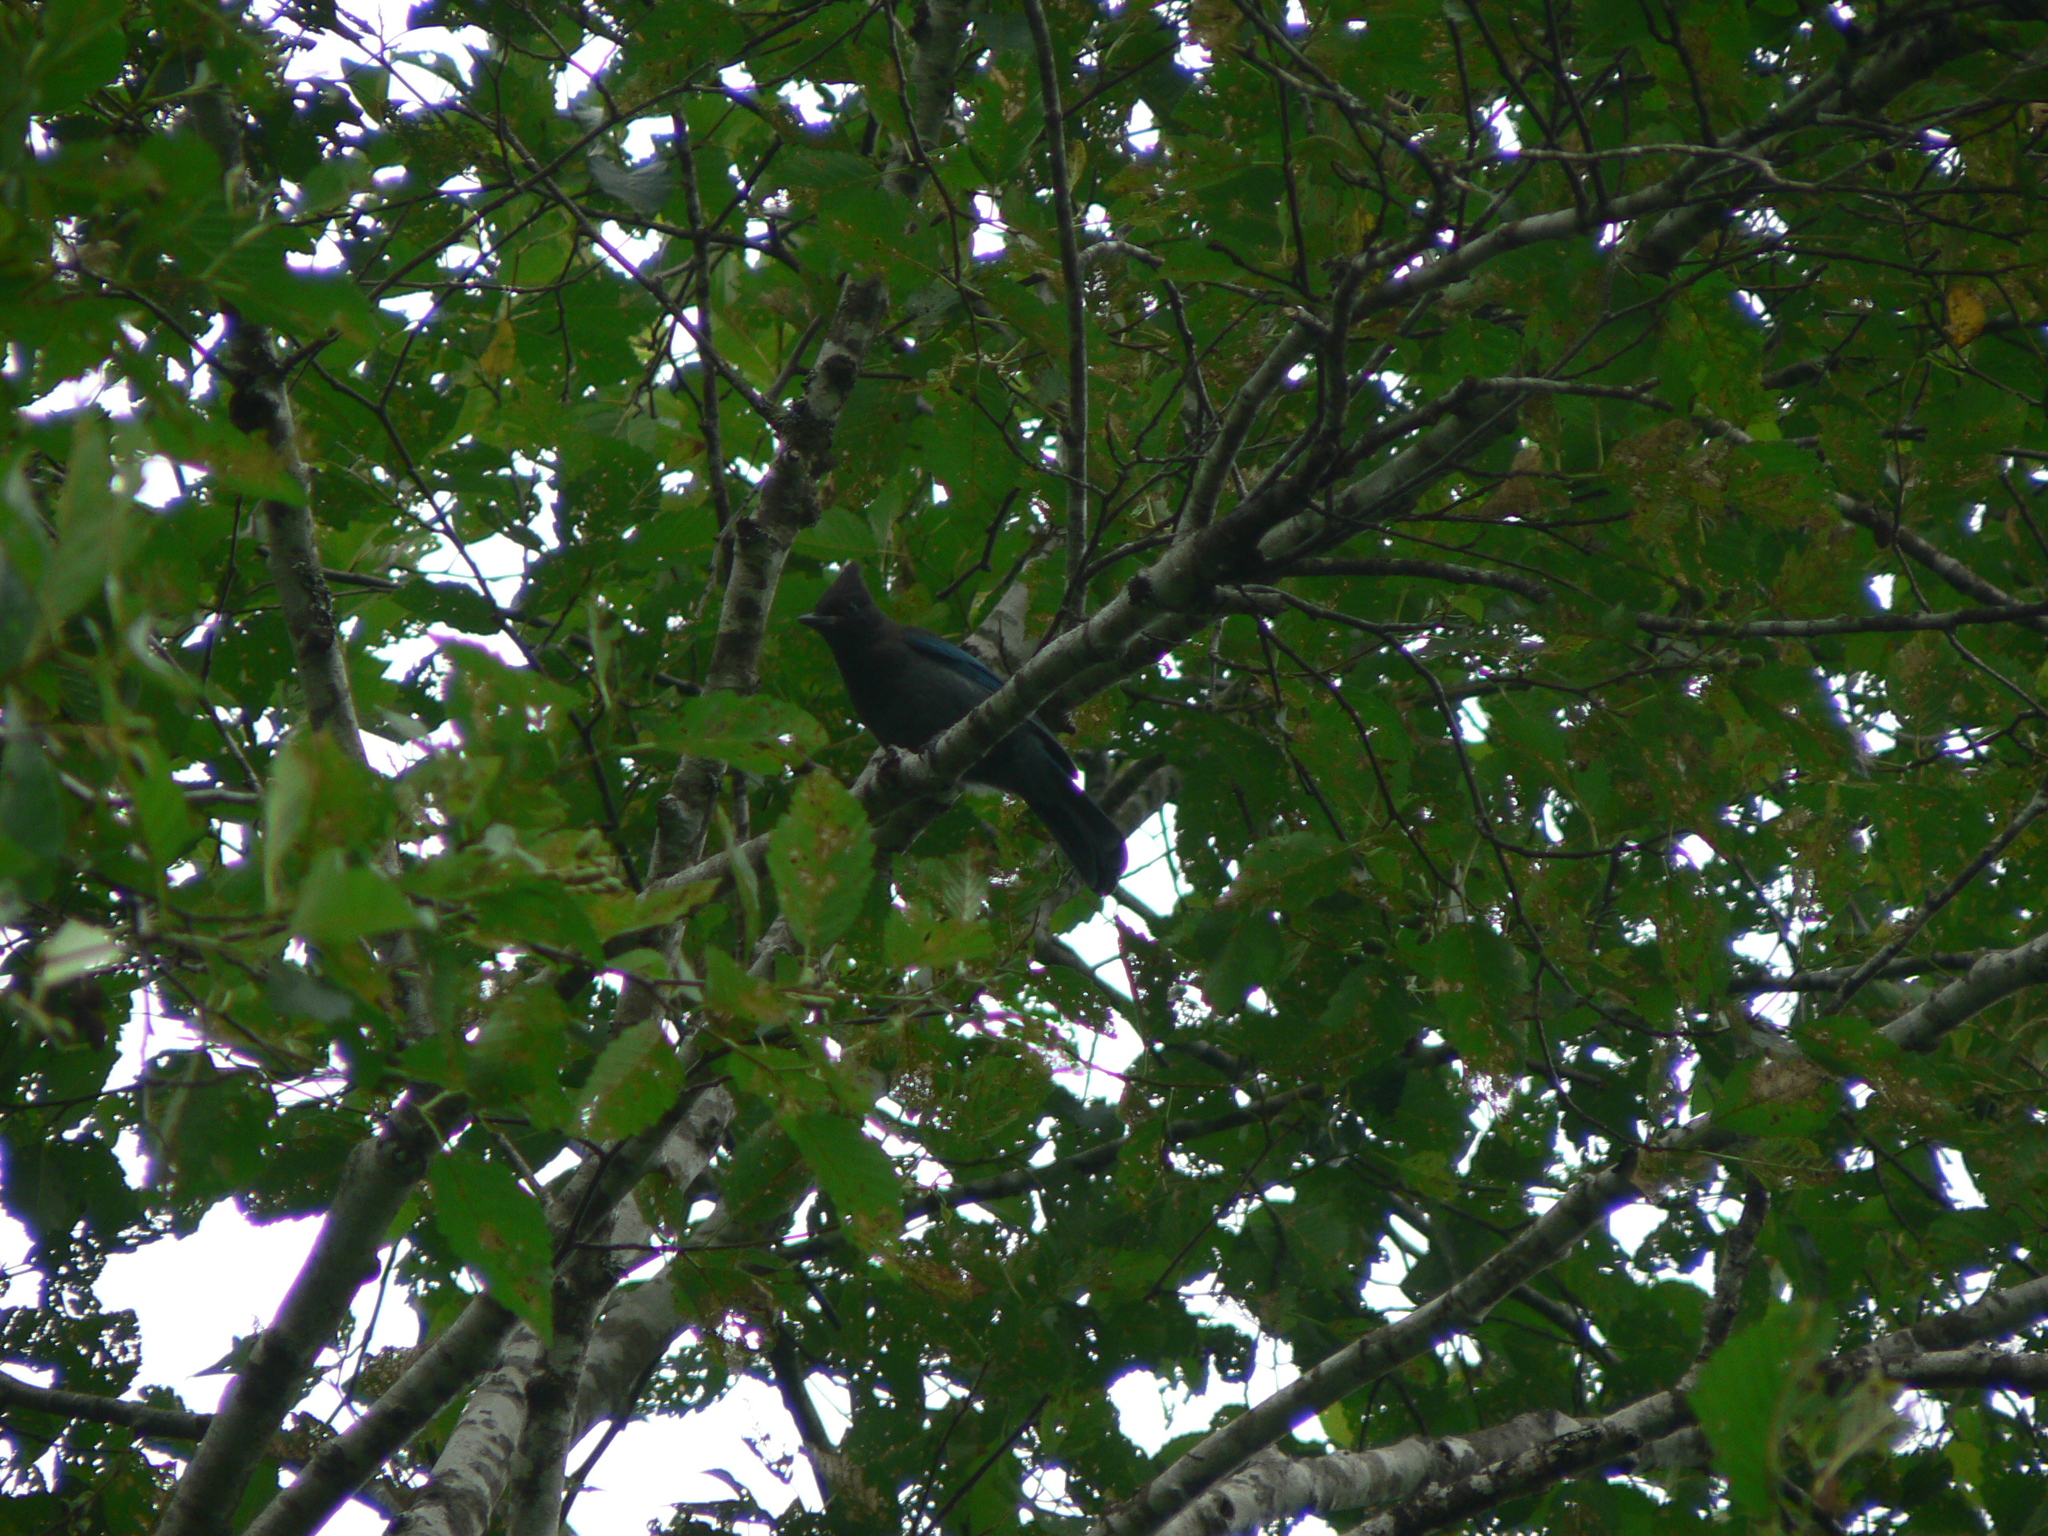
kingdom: Animalia
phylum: Chordata
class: Aves
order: Passeriformes
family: Corvidae
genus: Cyanocitta
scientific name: Cyanocitta stelleri
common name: Steller's jay
